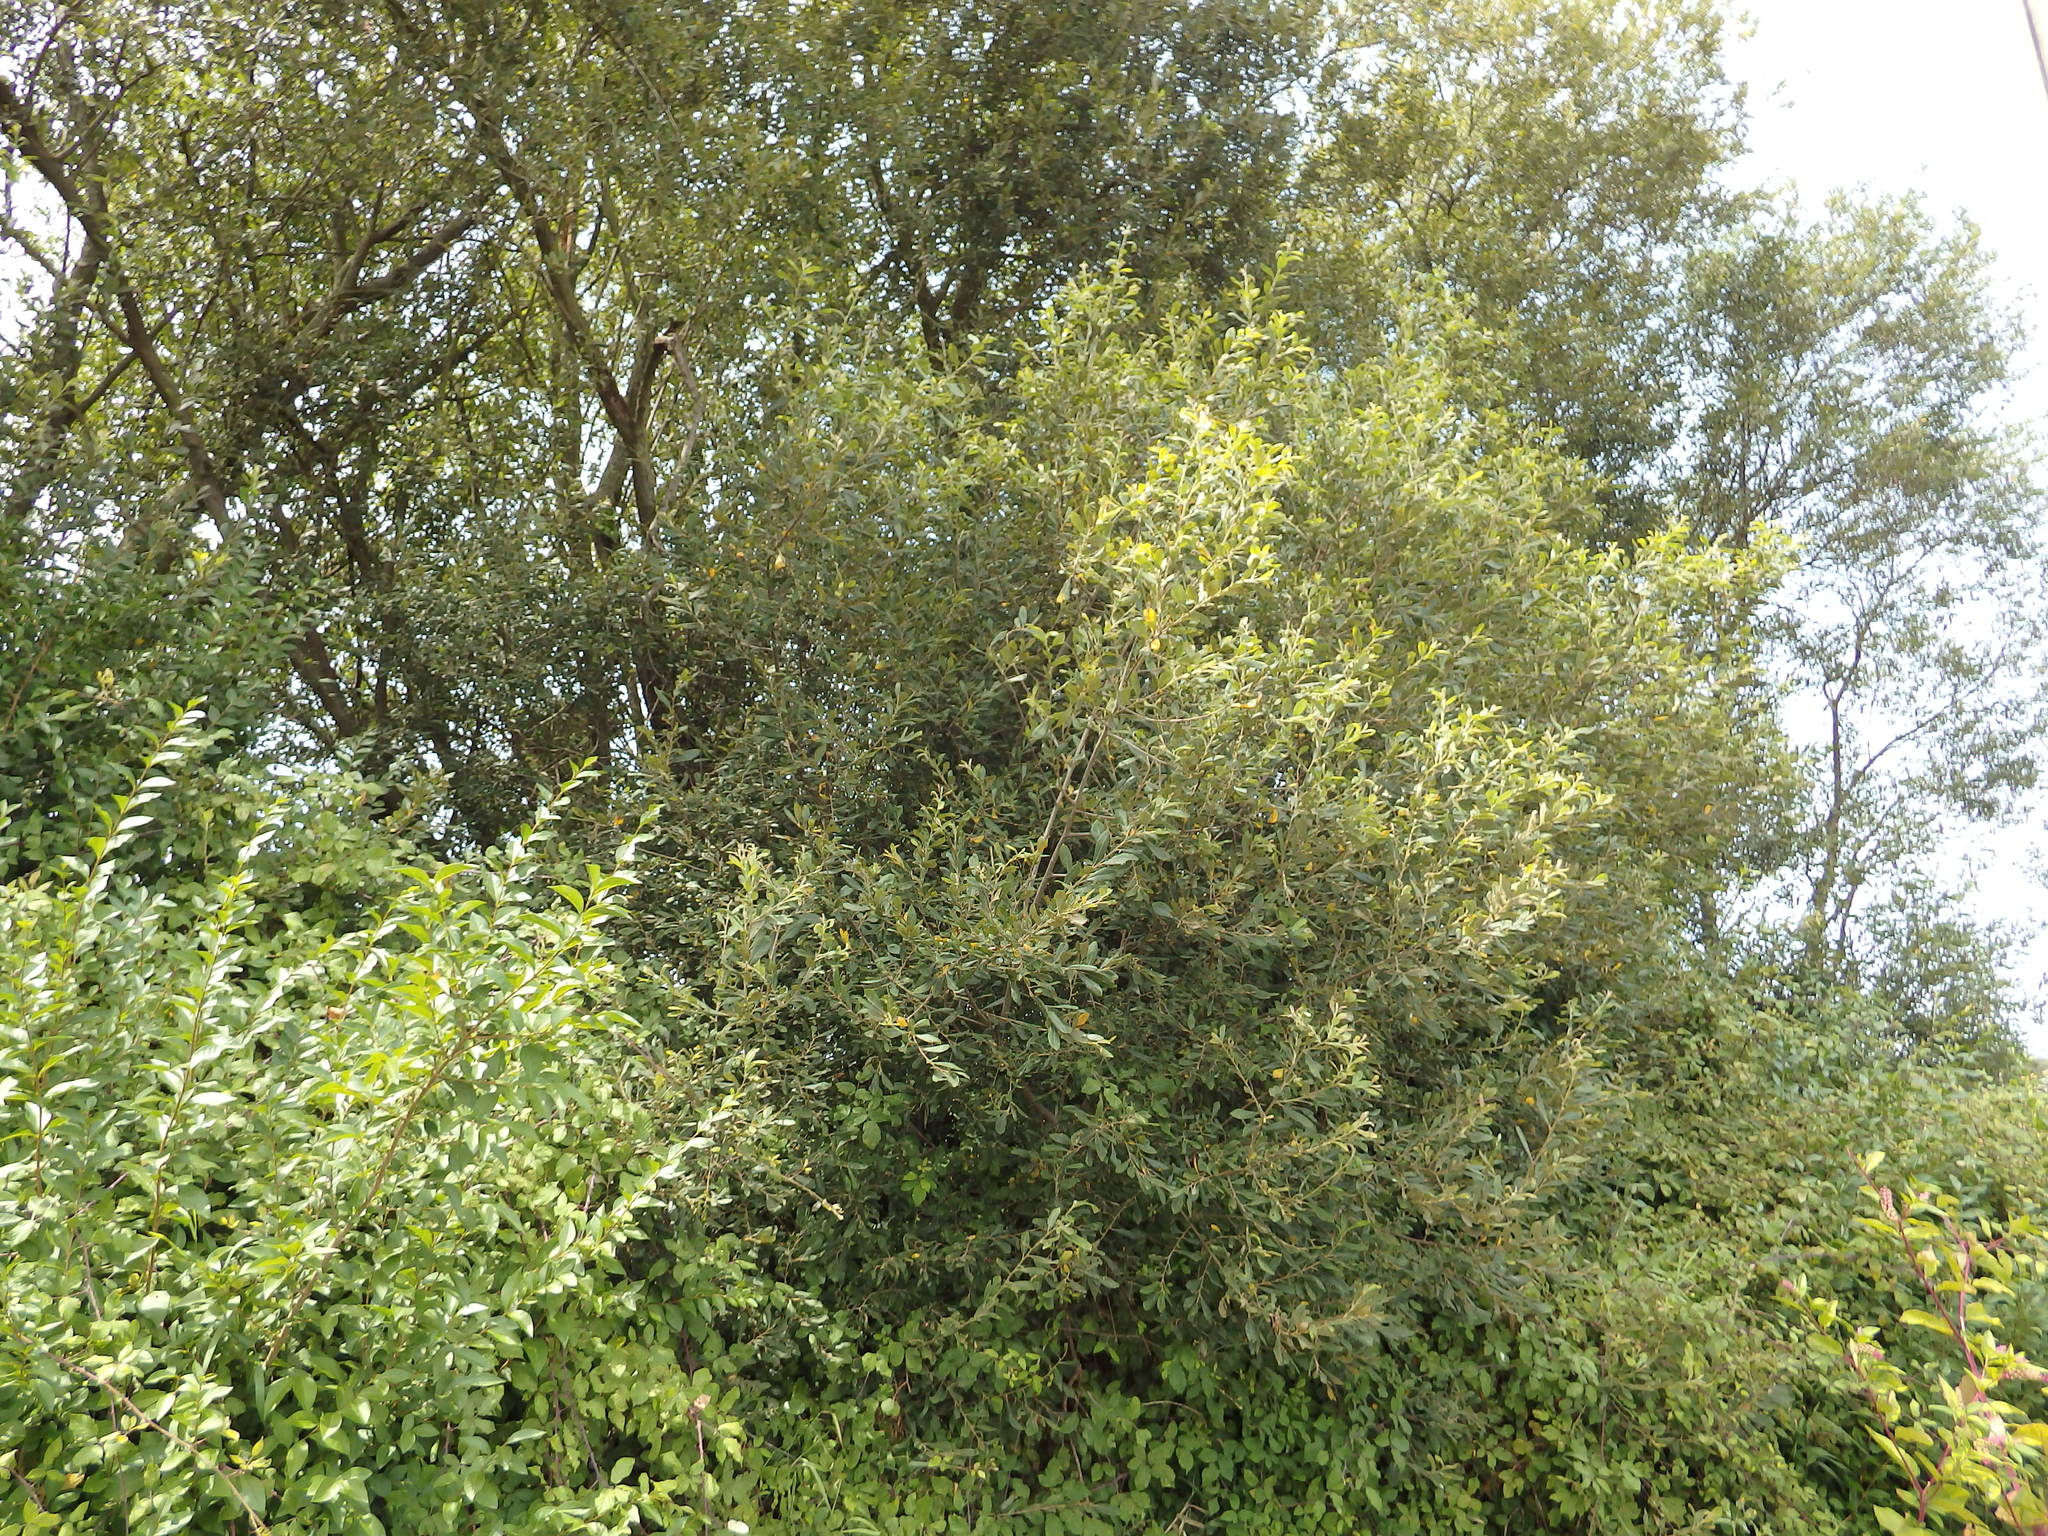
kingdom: Plantae
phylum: Tracheophyta
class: Magnoliopsida
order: Malpighiales
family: Salicaceae
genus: Salix
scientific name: Salix atrocinerea
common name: Rusty willow
